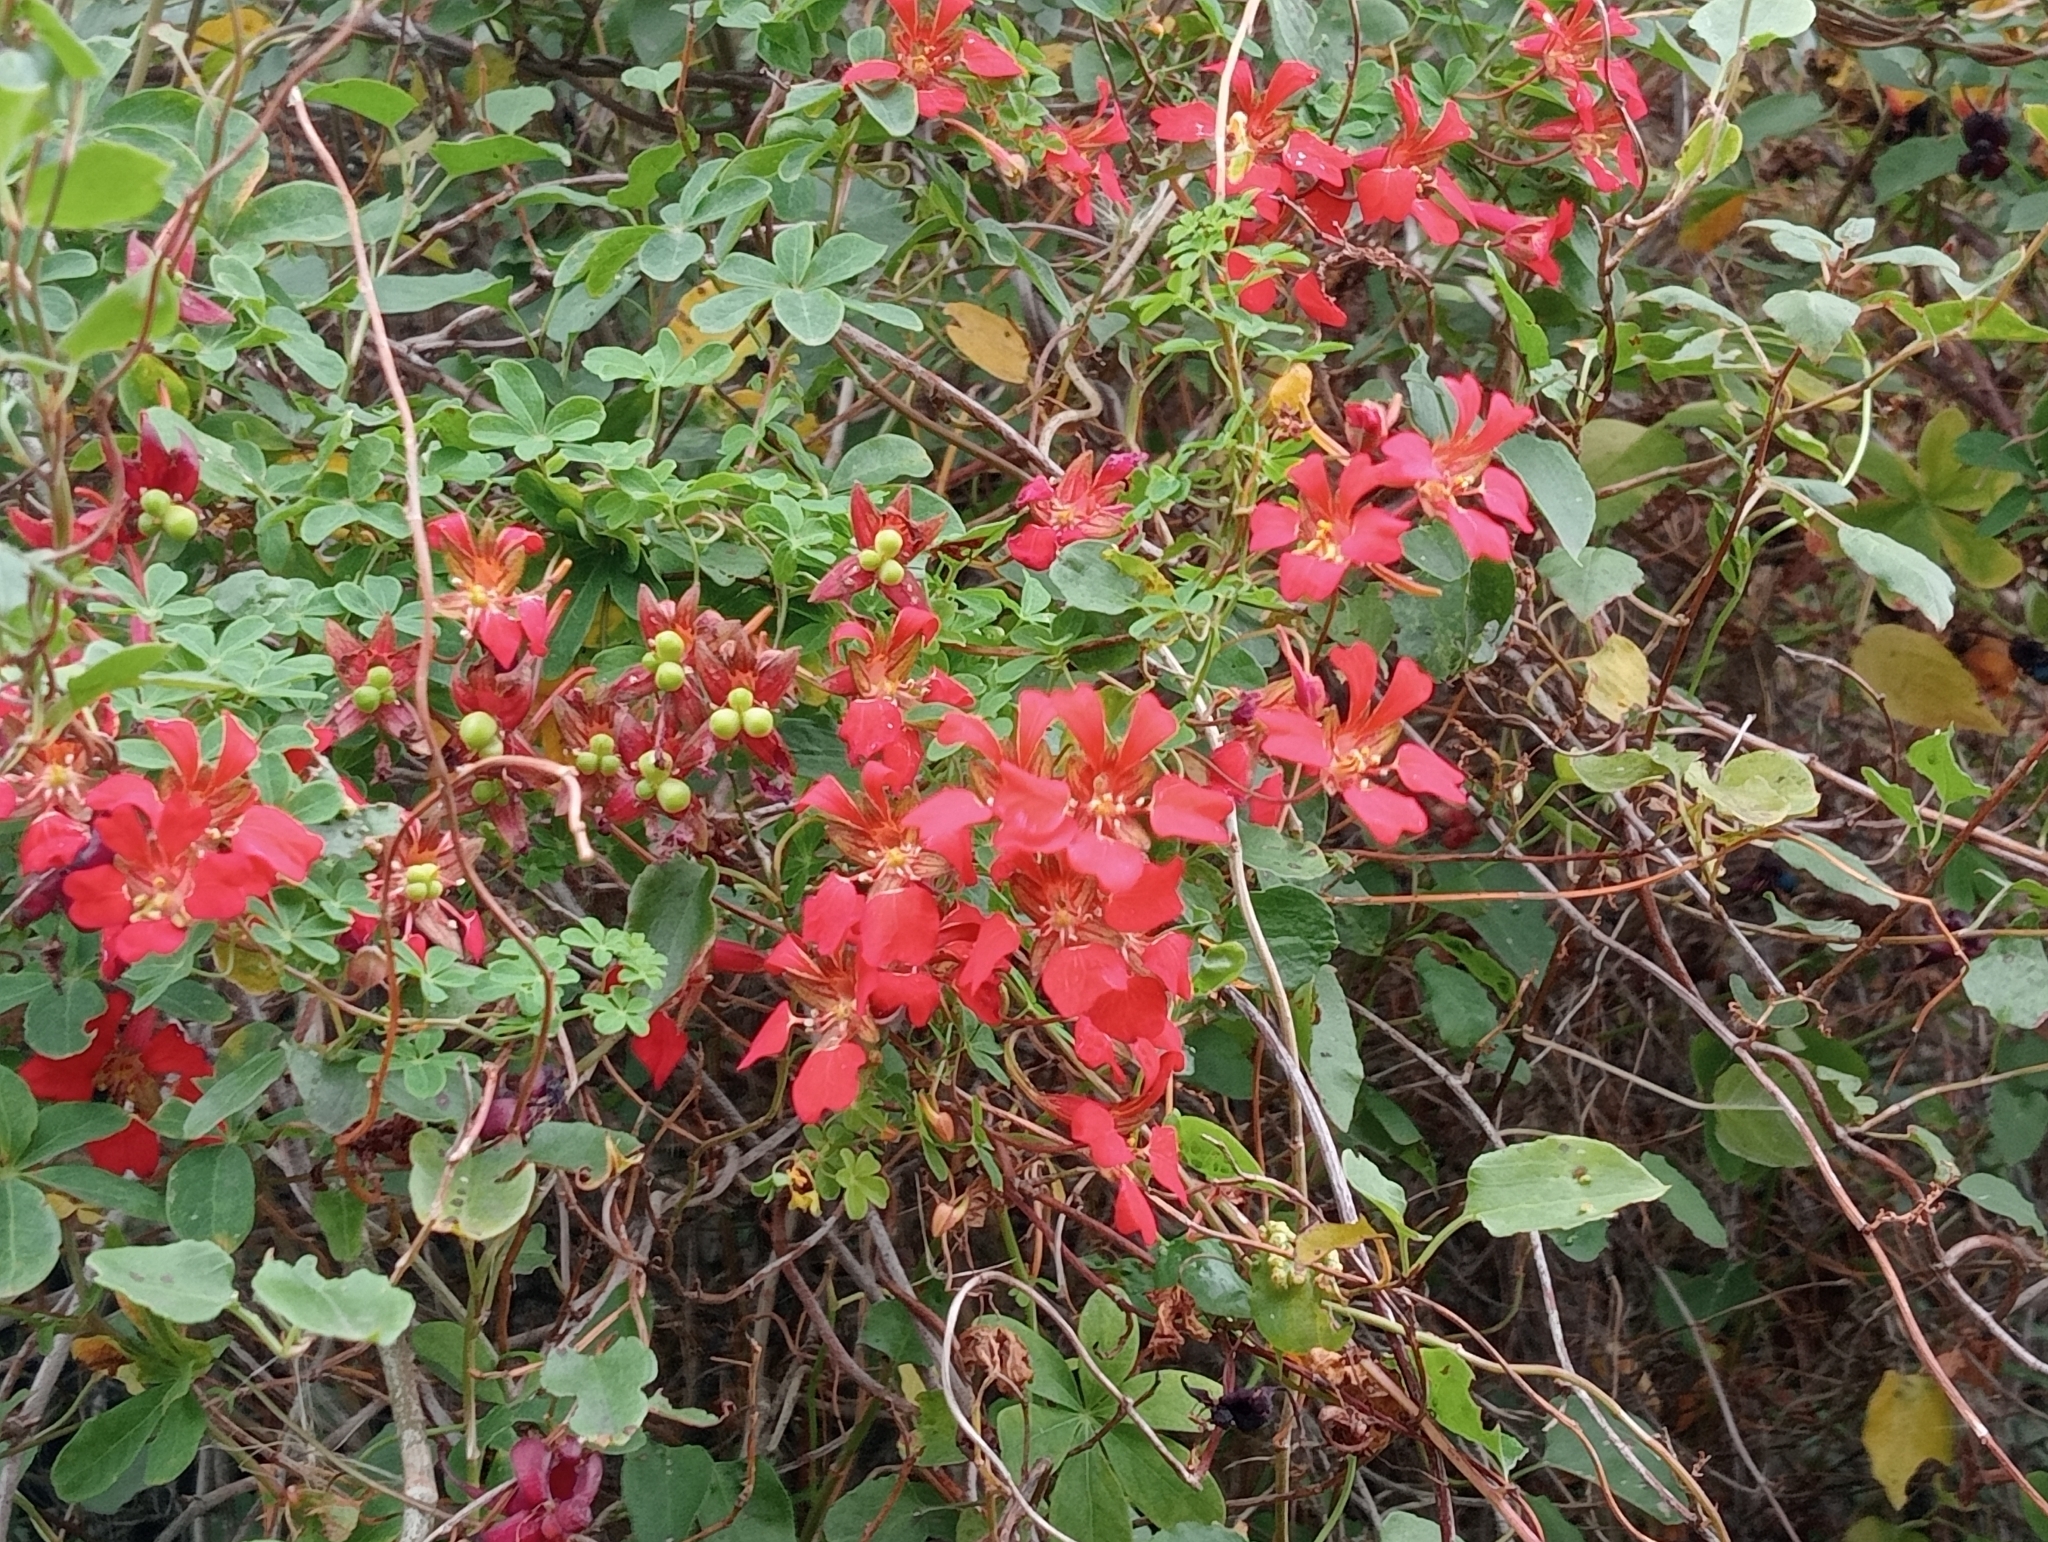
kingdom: Plantae
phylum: Tracheophyta
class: Magnoliopsida
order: Brassicales
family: Tropaeolaceae
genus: Tropaeolum
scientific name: Tropaeolum speciosum
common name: Flame nasturtium
